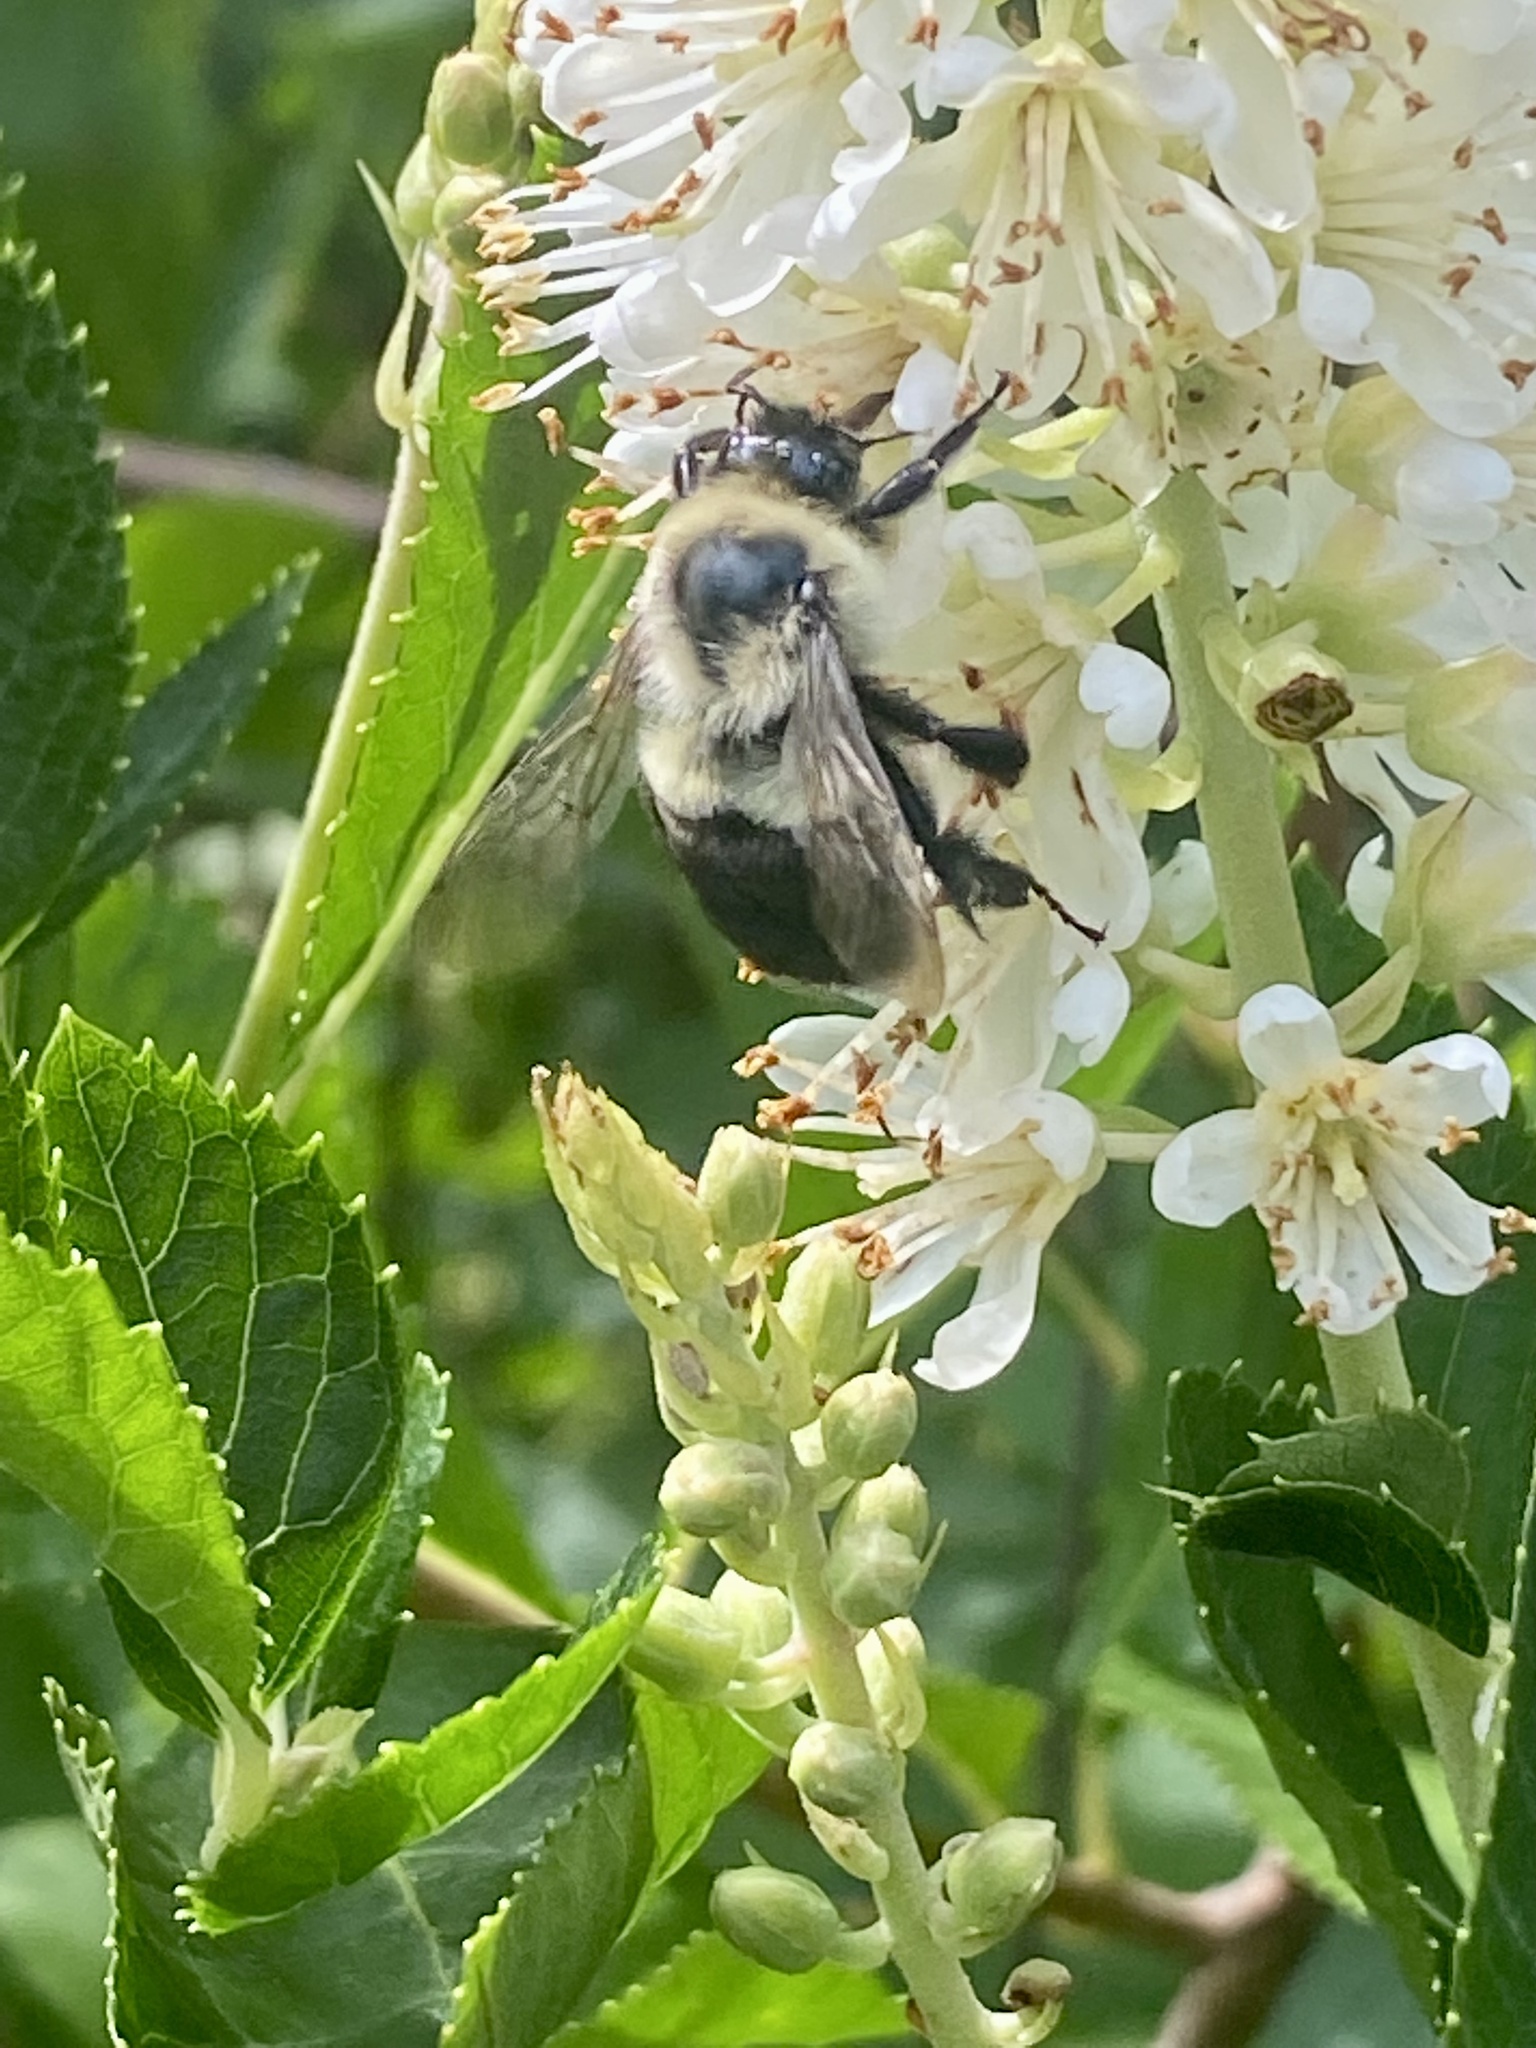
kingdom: Animalia
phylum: Arthropoda
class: Insecta
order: Hymenoptera
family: Apidae
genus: Bombus
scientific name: Bombus impatiens
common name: Common eastern bumble bee
